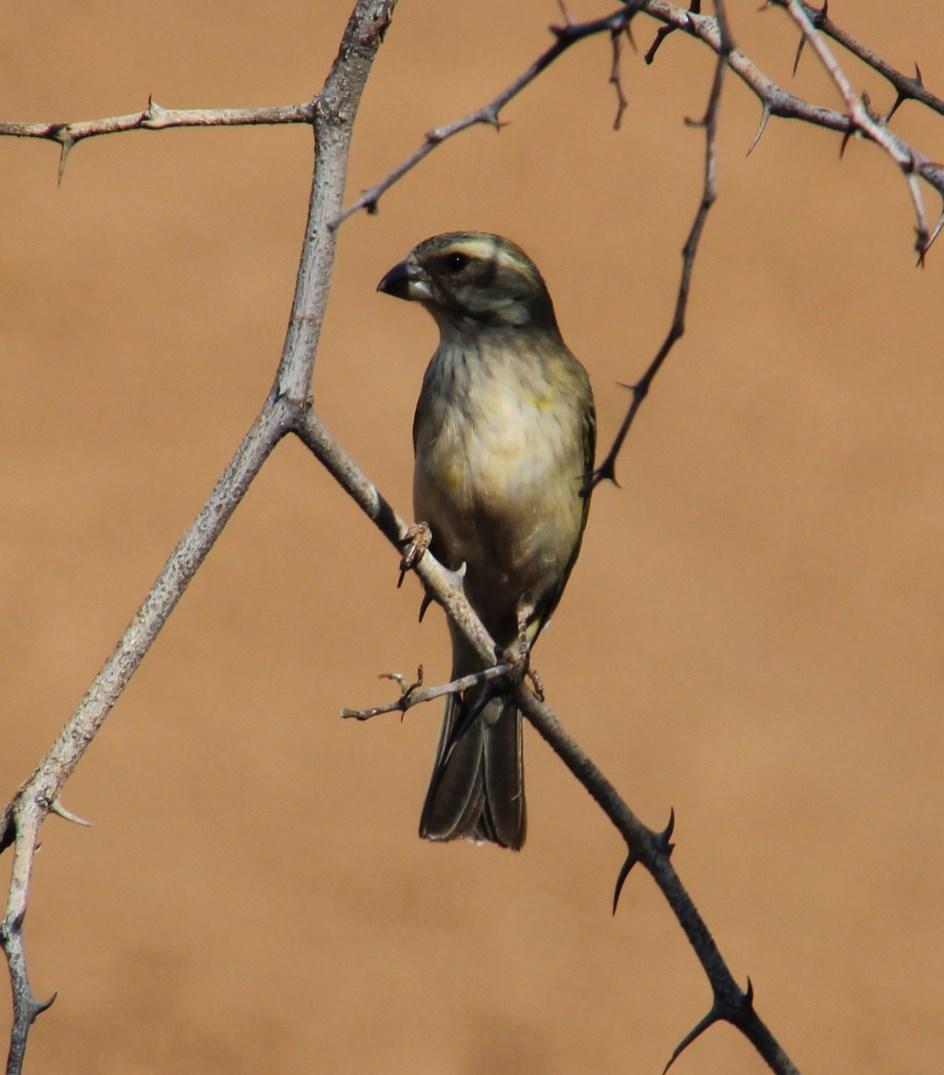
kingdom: Animalia
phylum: Chordata
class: Aves
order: Passeriformes
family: Passeridae
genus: Plocepasser
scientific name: Plocepasser mahali
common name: White-browed sparrow-weaver
